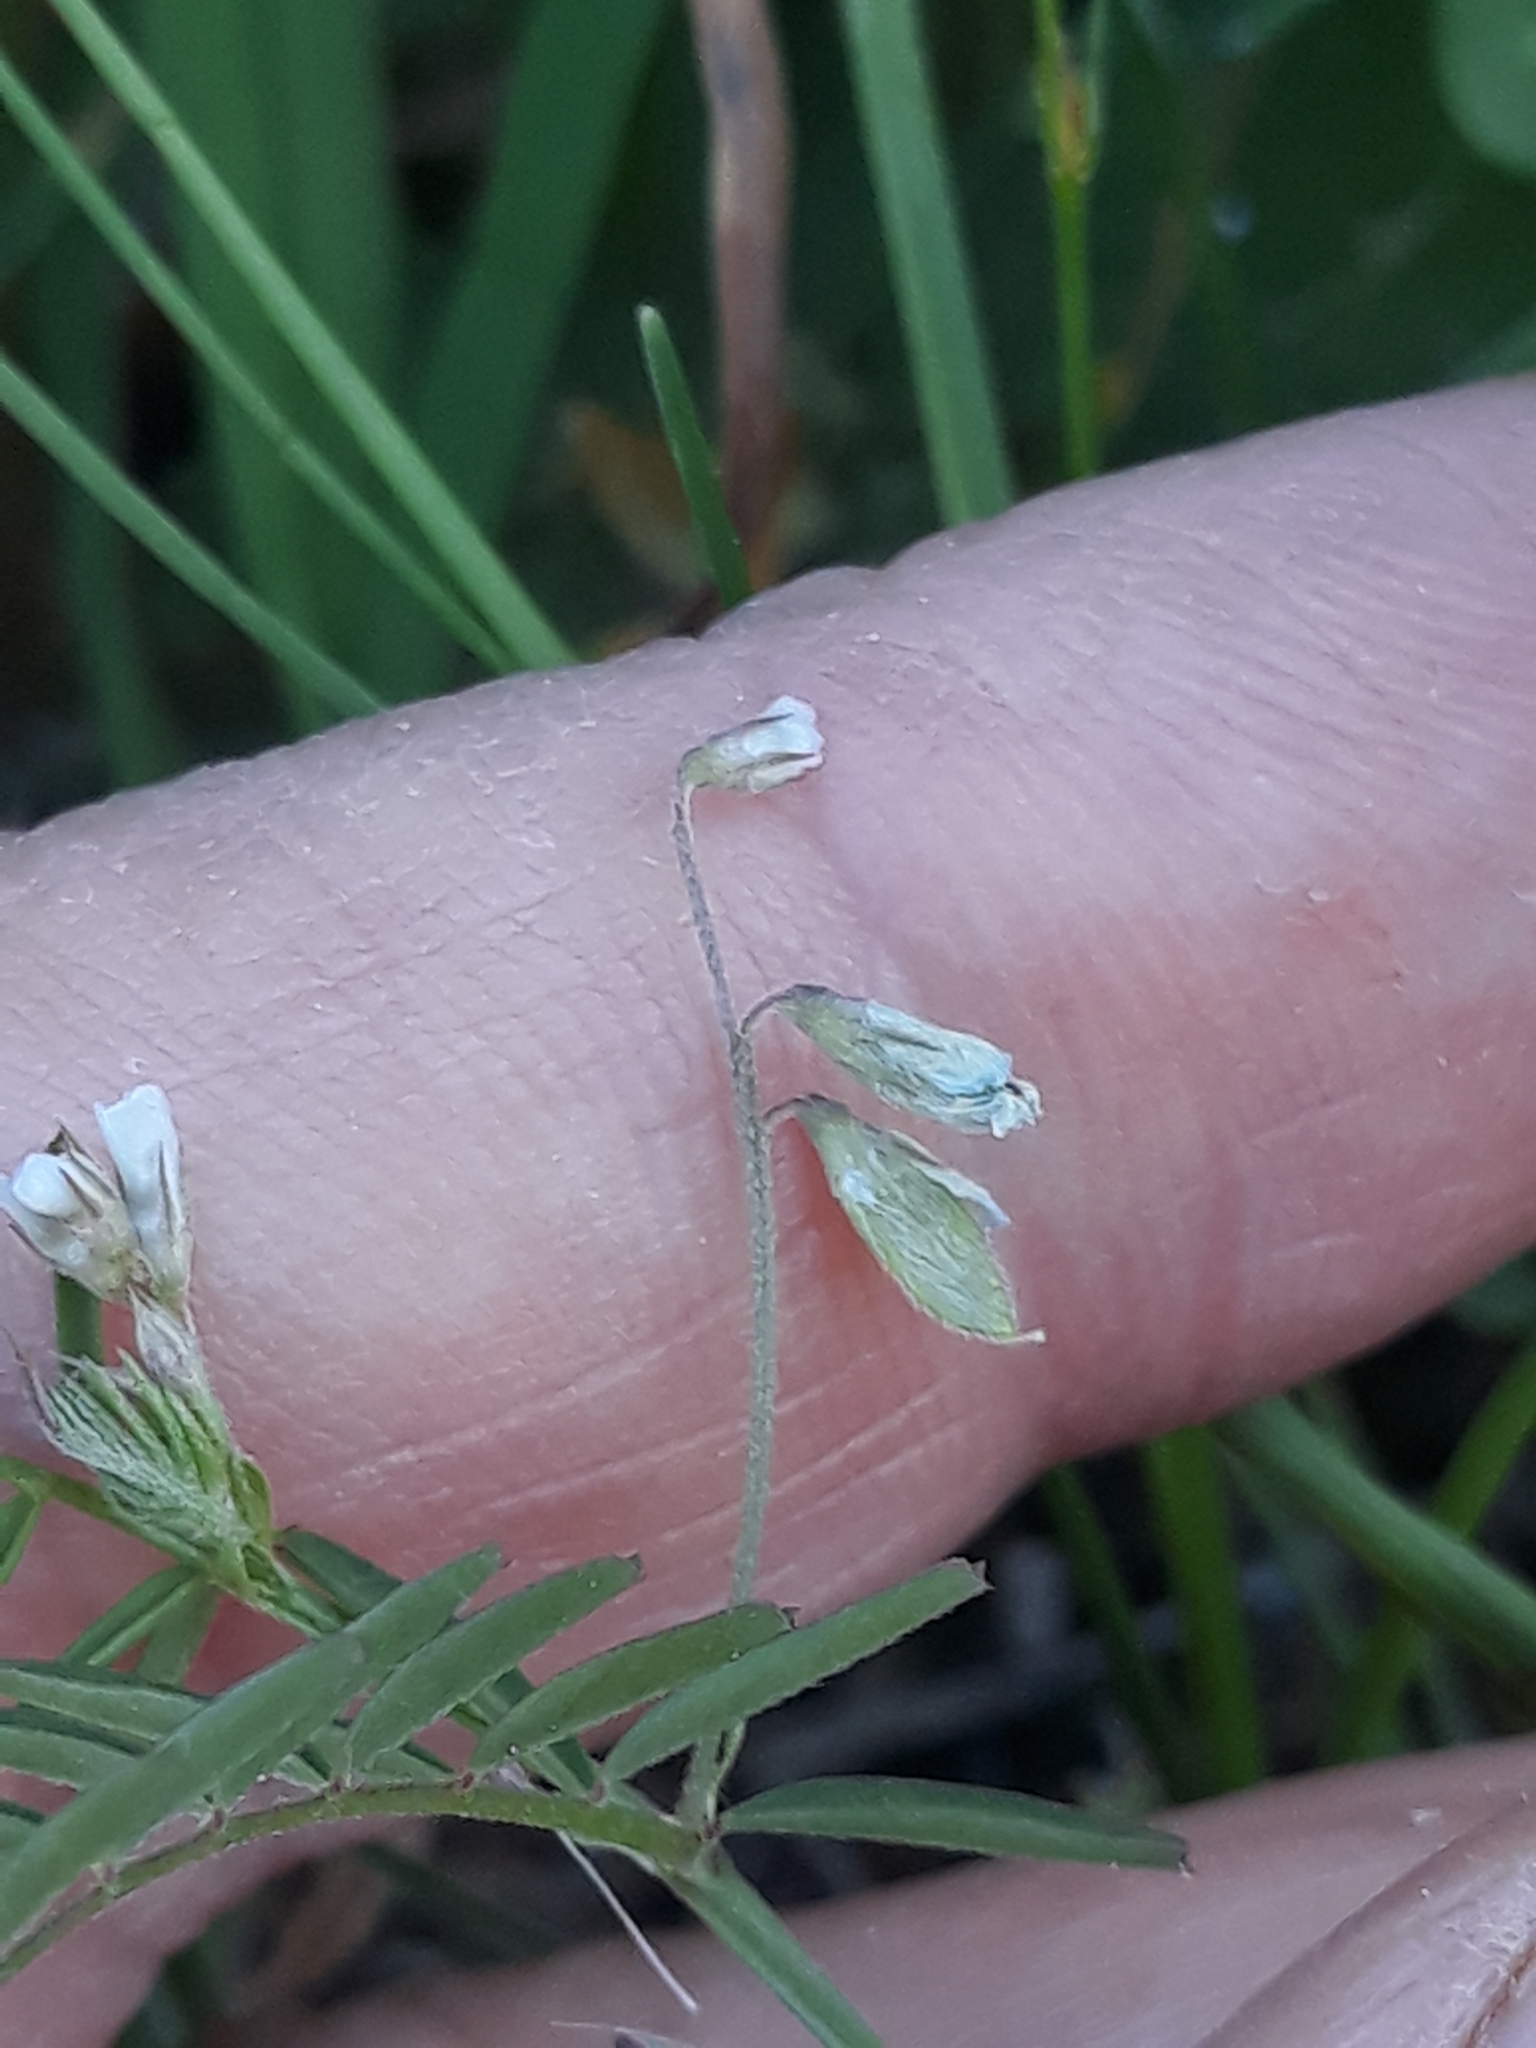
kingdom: Plantae
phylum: Tracheophyta
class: Magnoliopsida
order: Fabales
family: Fabaceae
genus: Vicia
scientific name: Vicia hirsuta
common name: Tiny vetch
